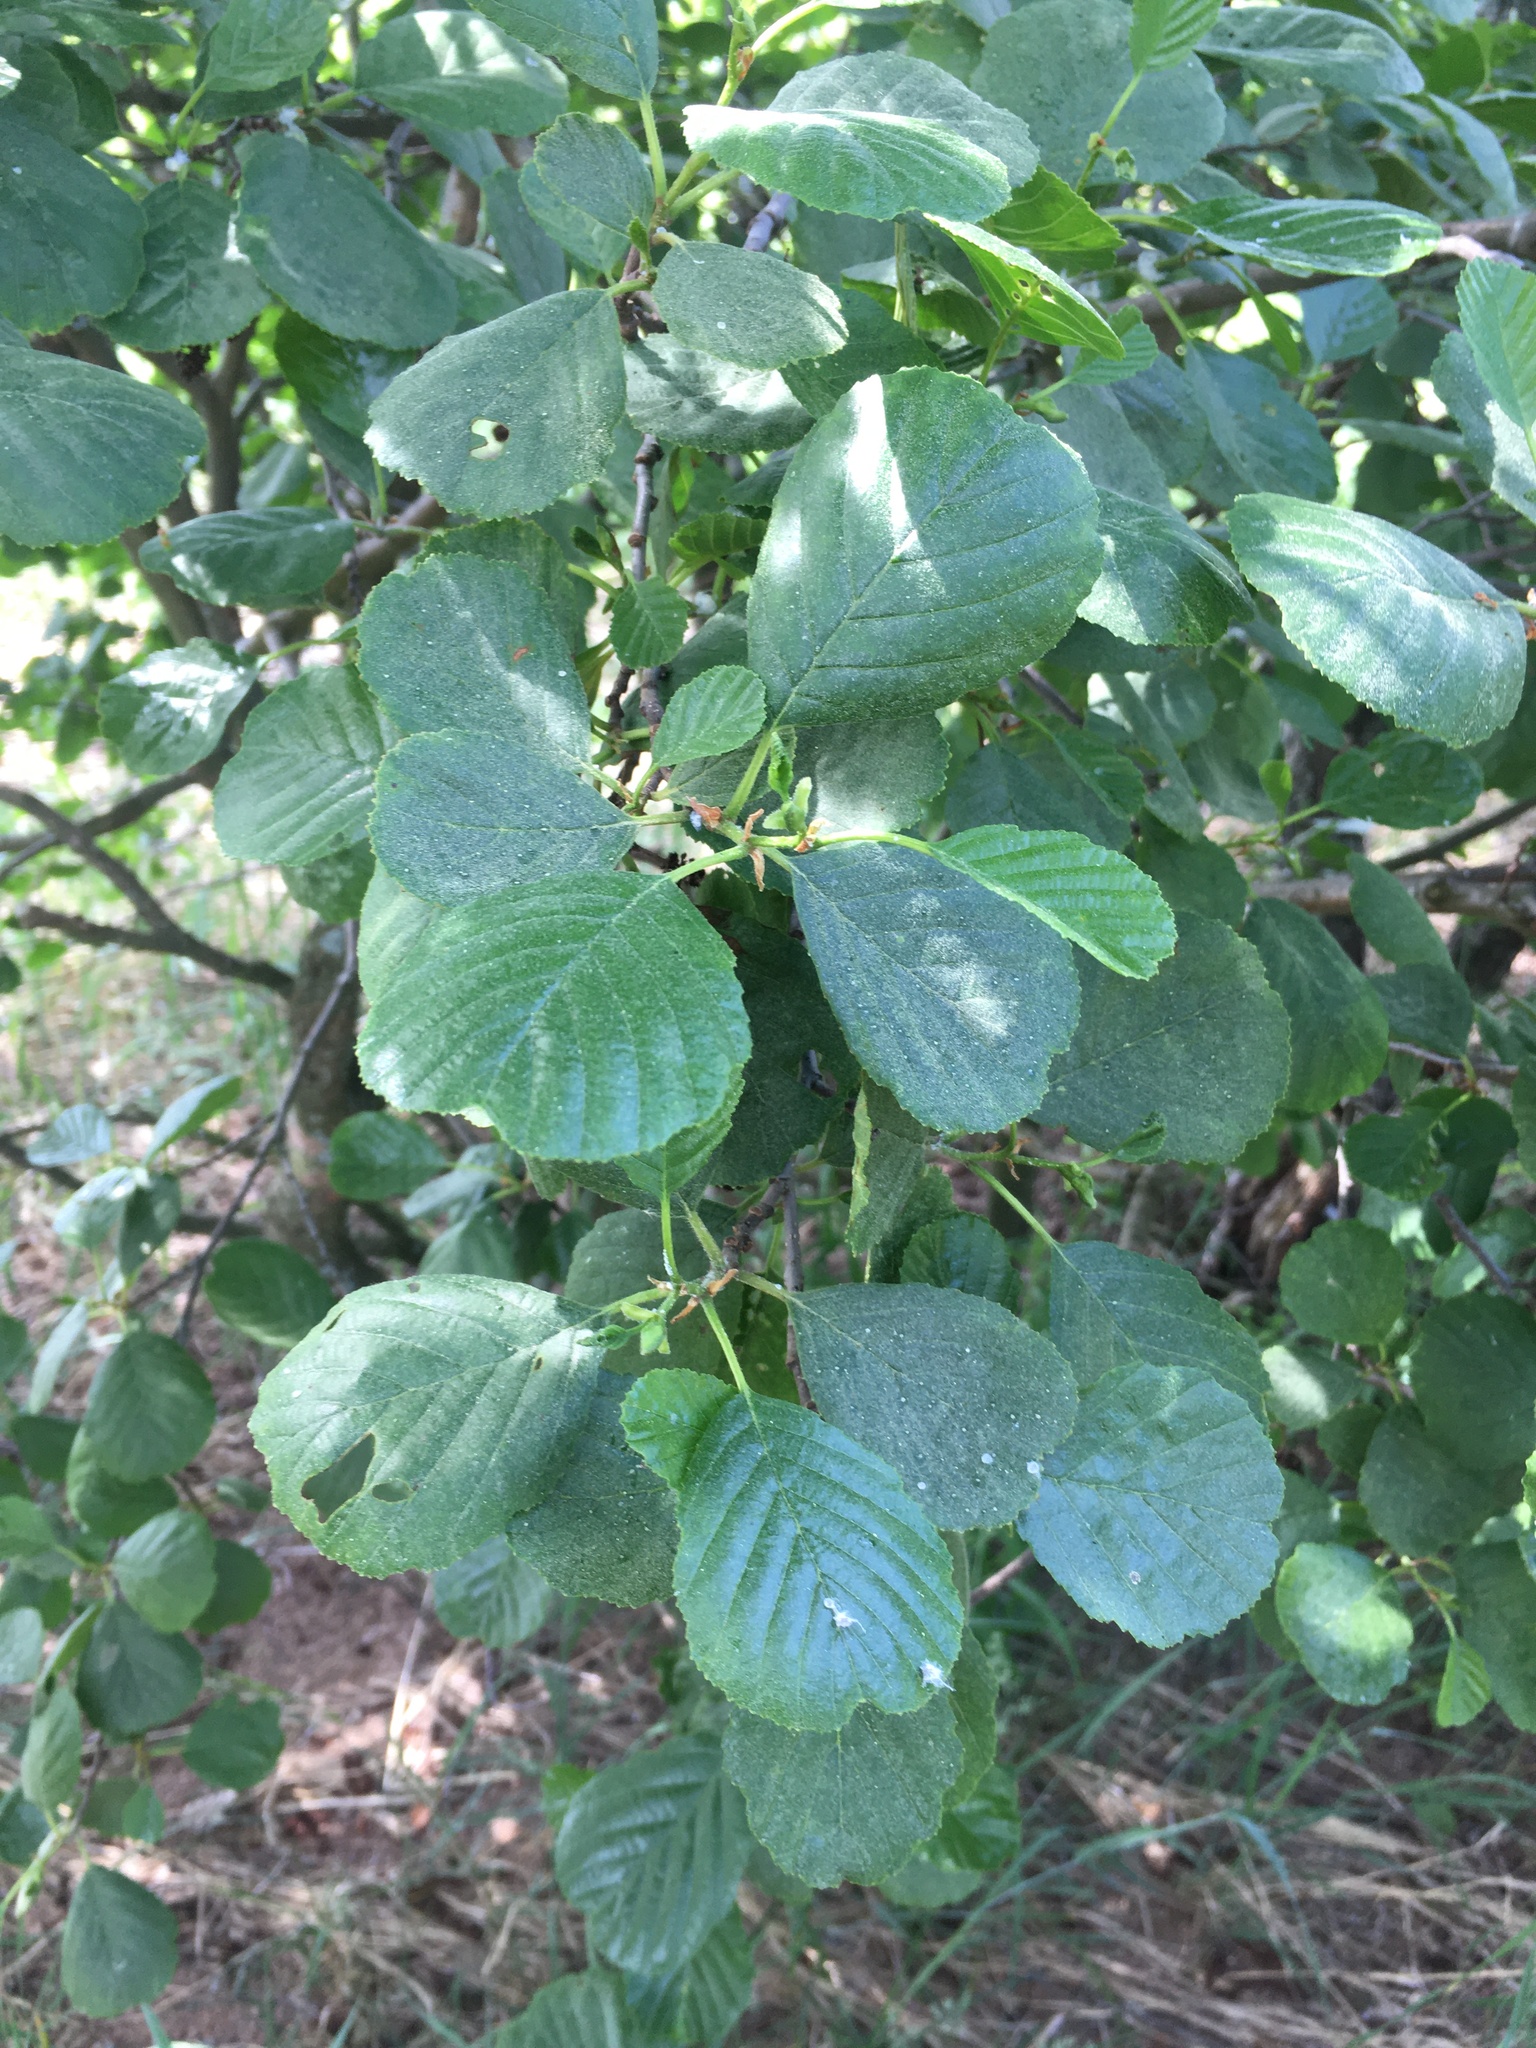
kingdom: Plantae
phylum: Tracheophyta
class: Magnoliopsida
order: Fagales
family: Betulaceae
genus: Alnus
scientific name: Alnus glutinosa
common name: Black alder
